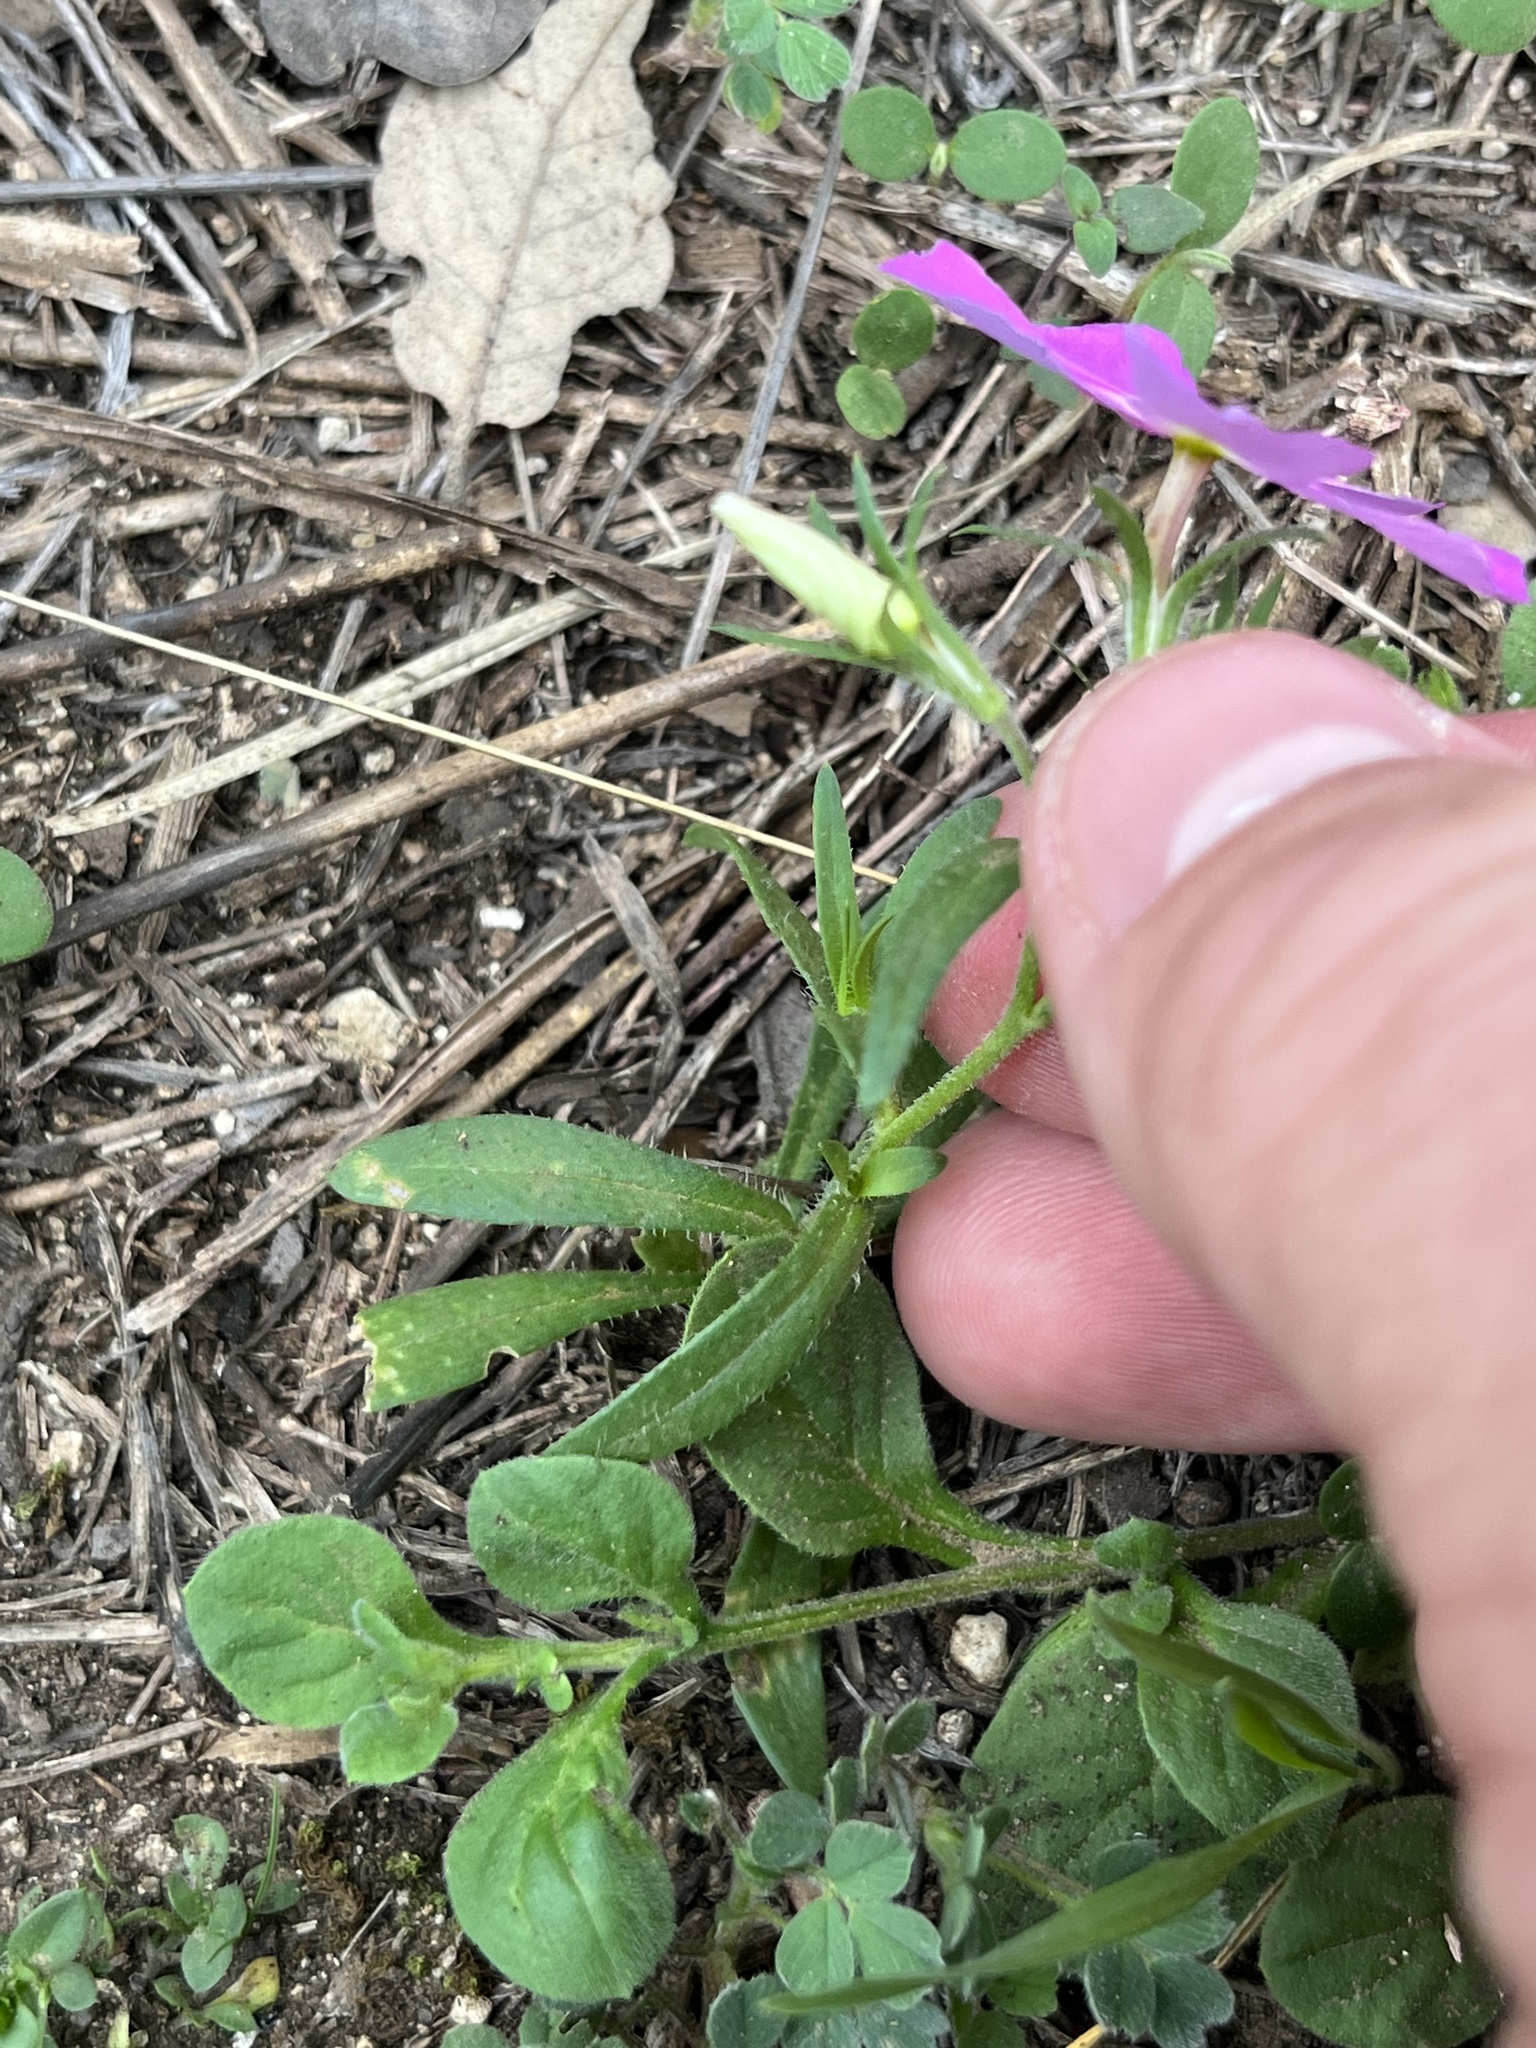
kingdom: Plantae
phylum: Tracheophyta
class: Magnoliopsida
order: Ericales
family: Polemoniaceae
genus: Phlox
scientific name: Phlox roemeriana
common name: Roemer's phlox
